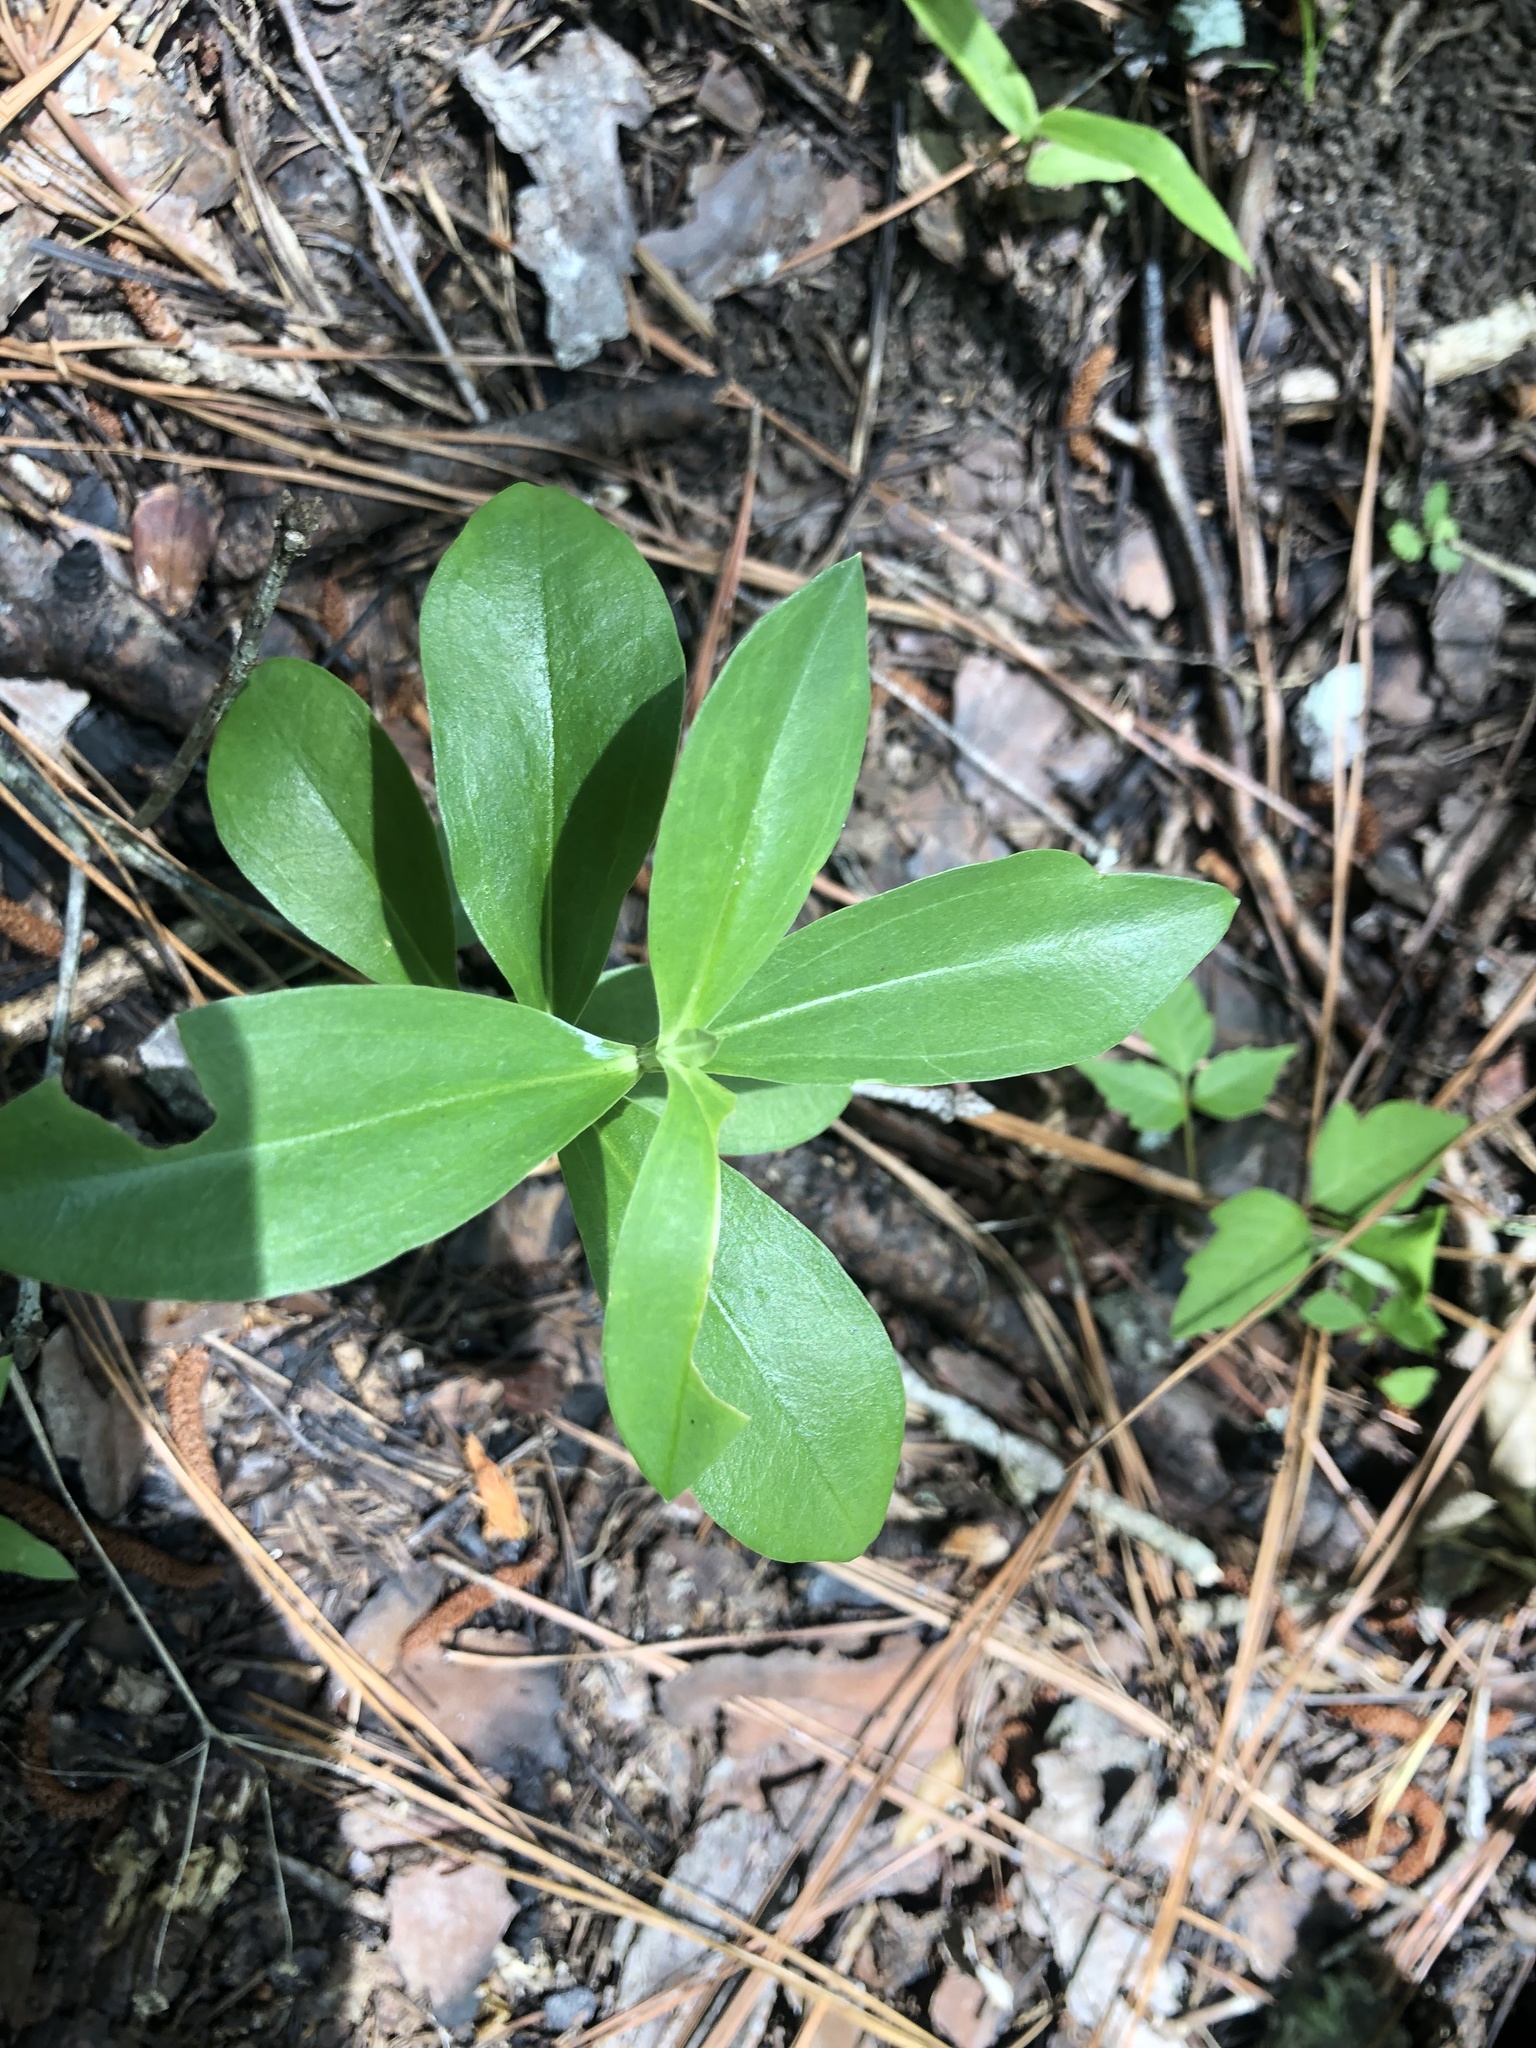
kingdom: Plantae
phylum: Tracheophyta
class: Magnoliopsida
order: Gentianales
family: Gentianaceae
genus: Gentiana
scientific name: Gentiana villosa
